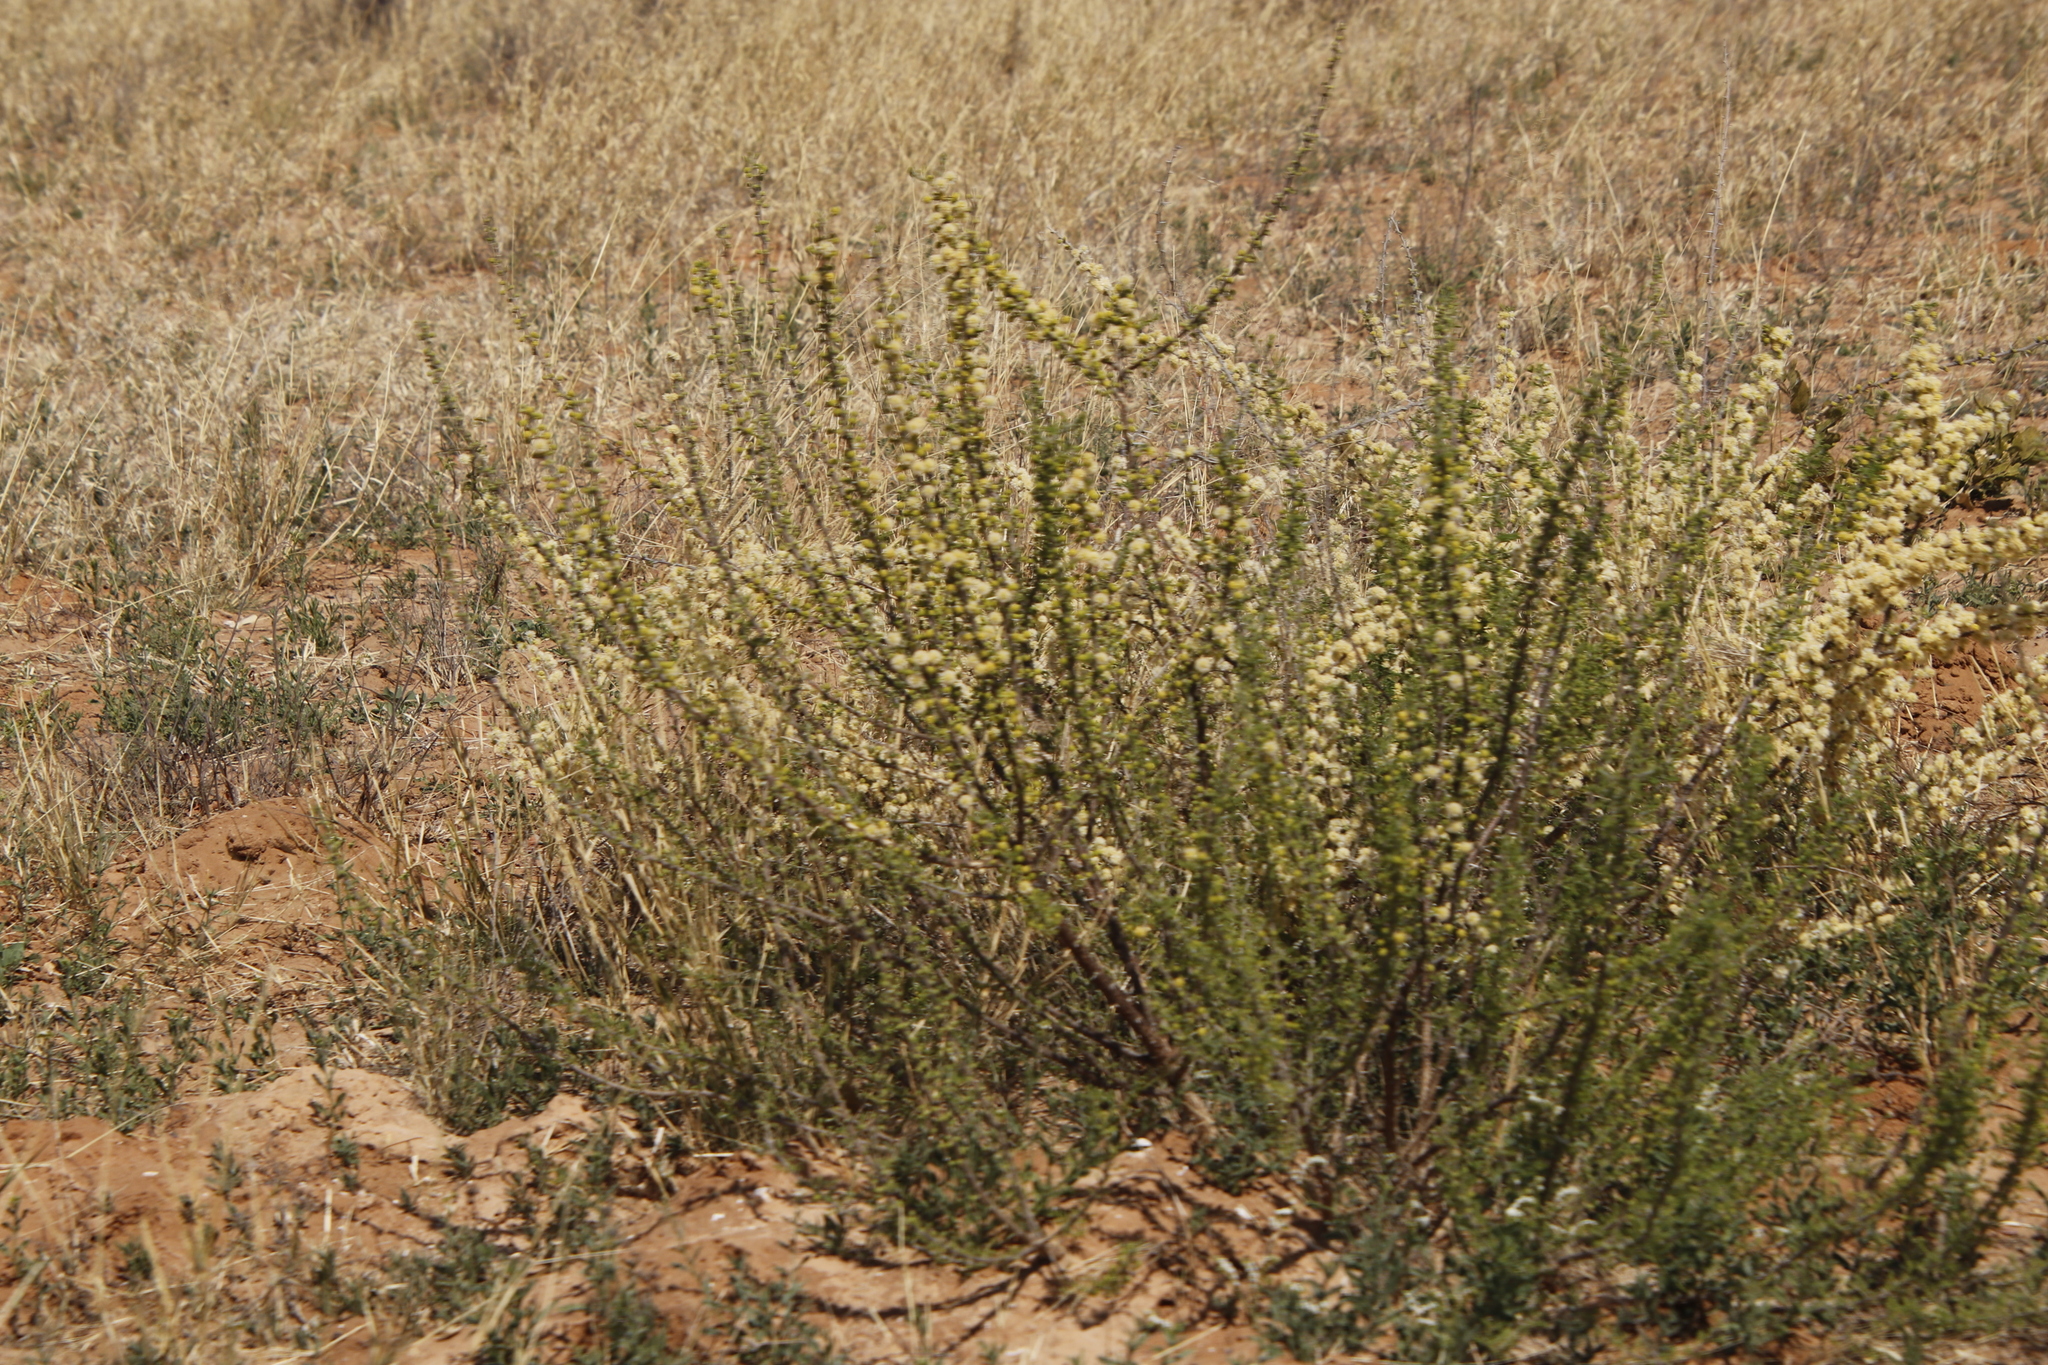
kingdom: Plantae
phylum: Tracheophyta
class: Magnoliopsida
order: Fabales
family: Fabaceae
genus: Vachellia
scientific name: Vachellia hebeclada
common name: Candle thorn
